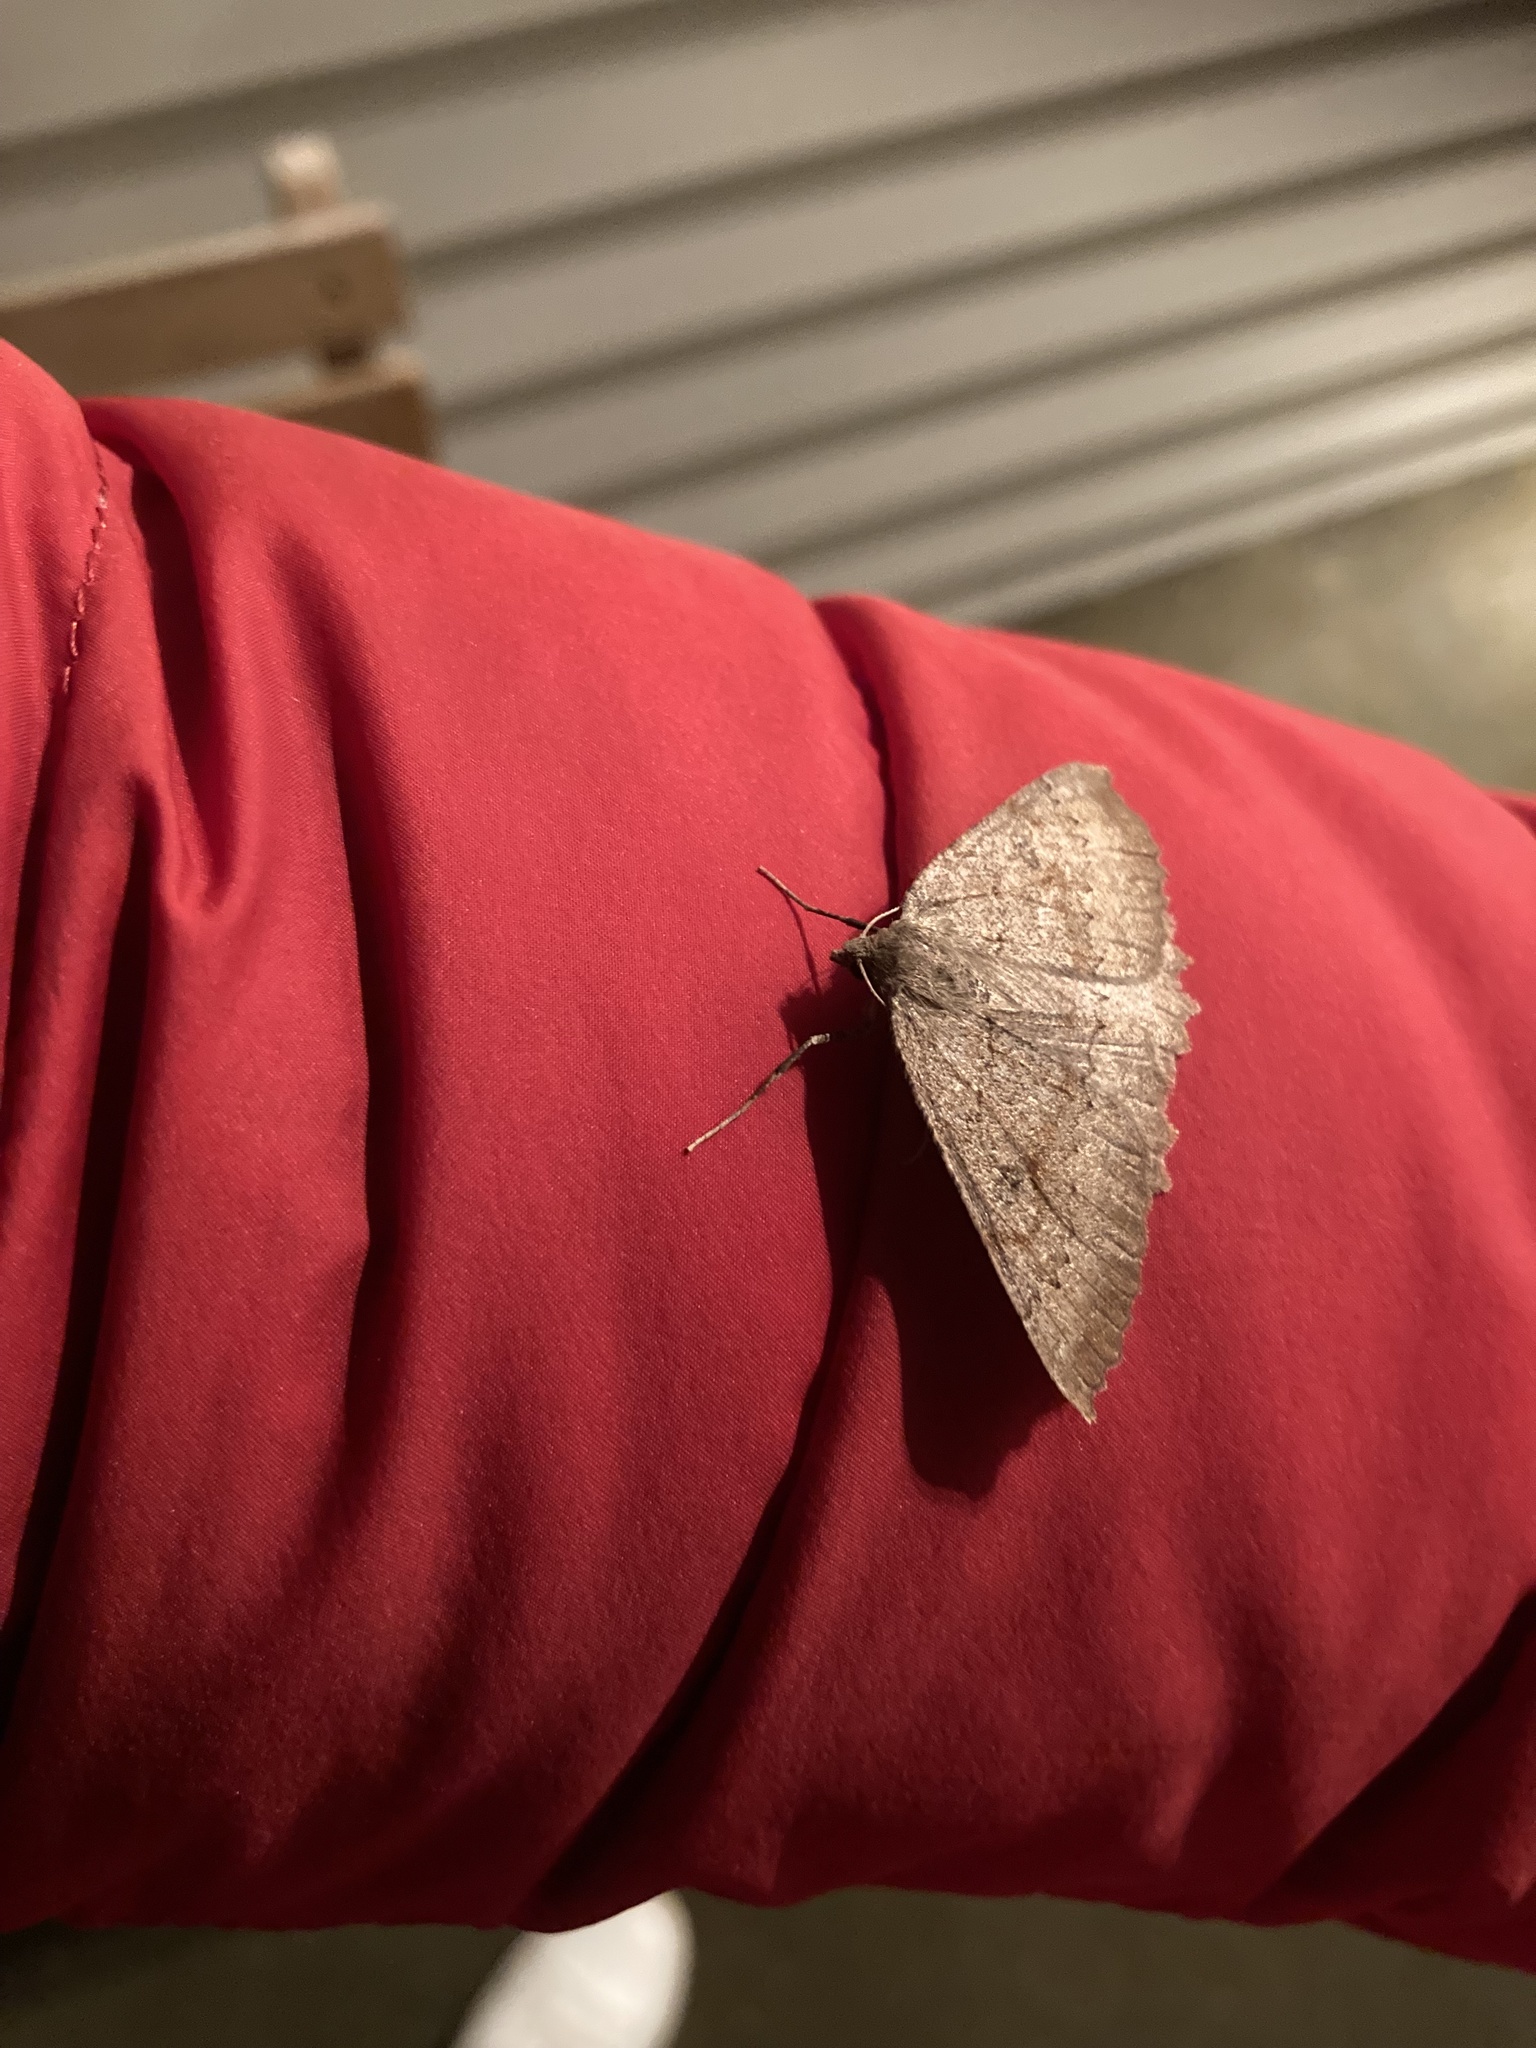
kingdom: Animalia
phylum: Arthropoda
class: Insecta
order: Lepidoptera
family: Geometridae
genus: Cleora
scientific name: Cleora scriptaria
